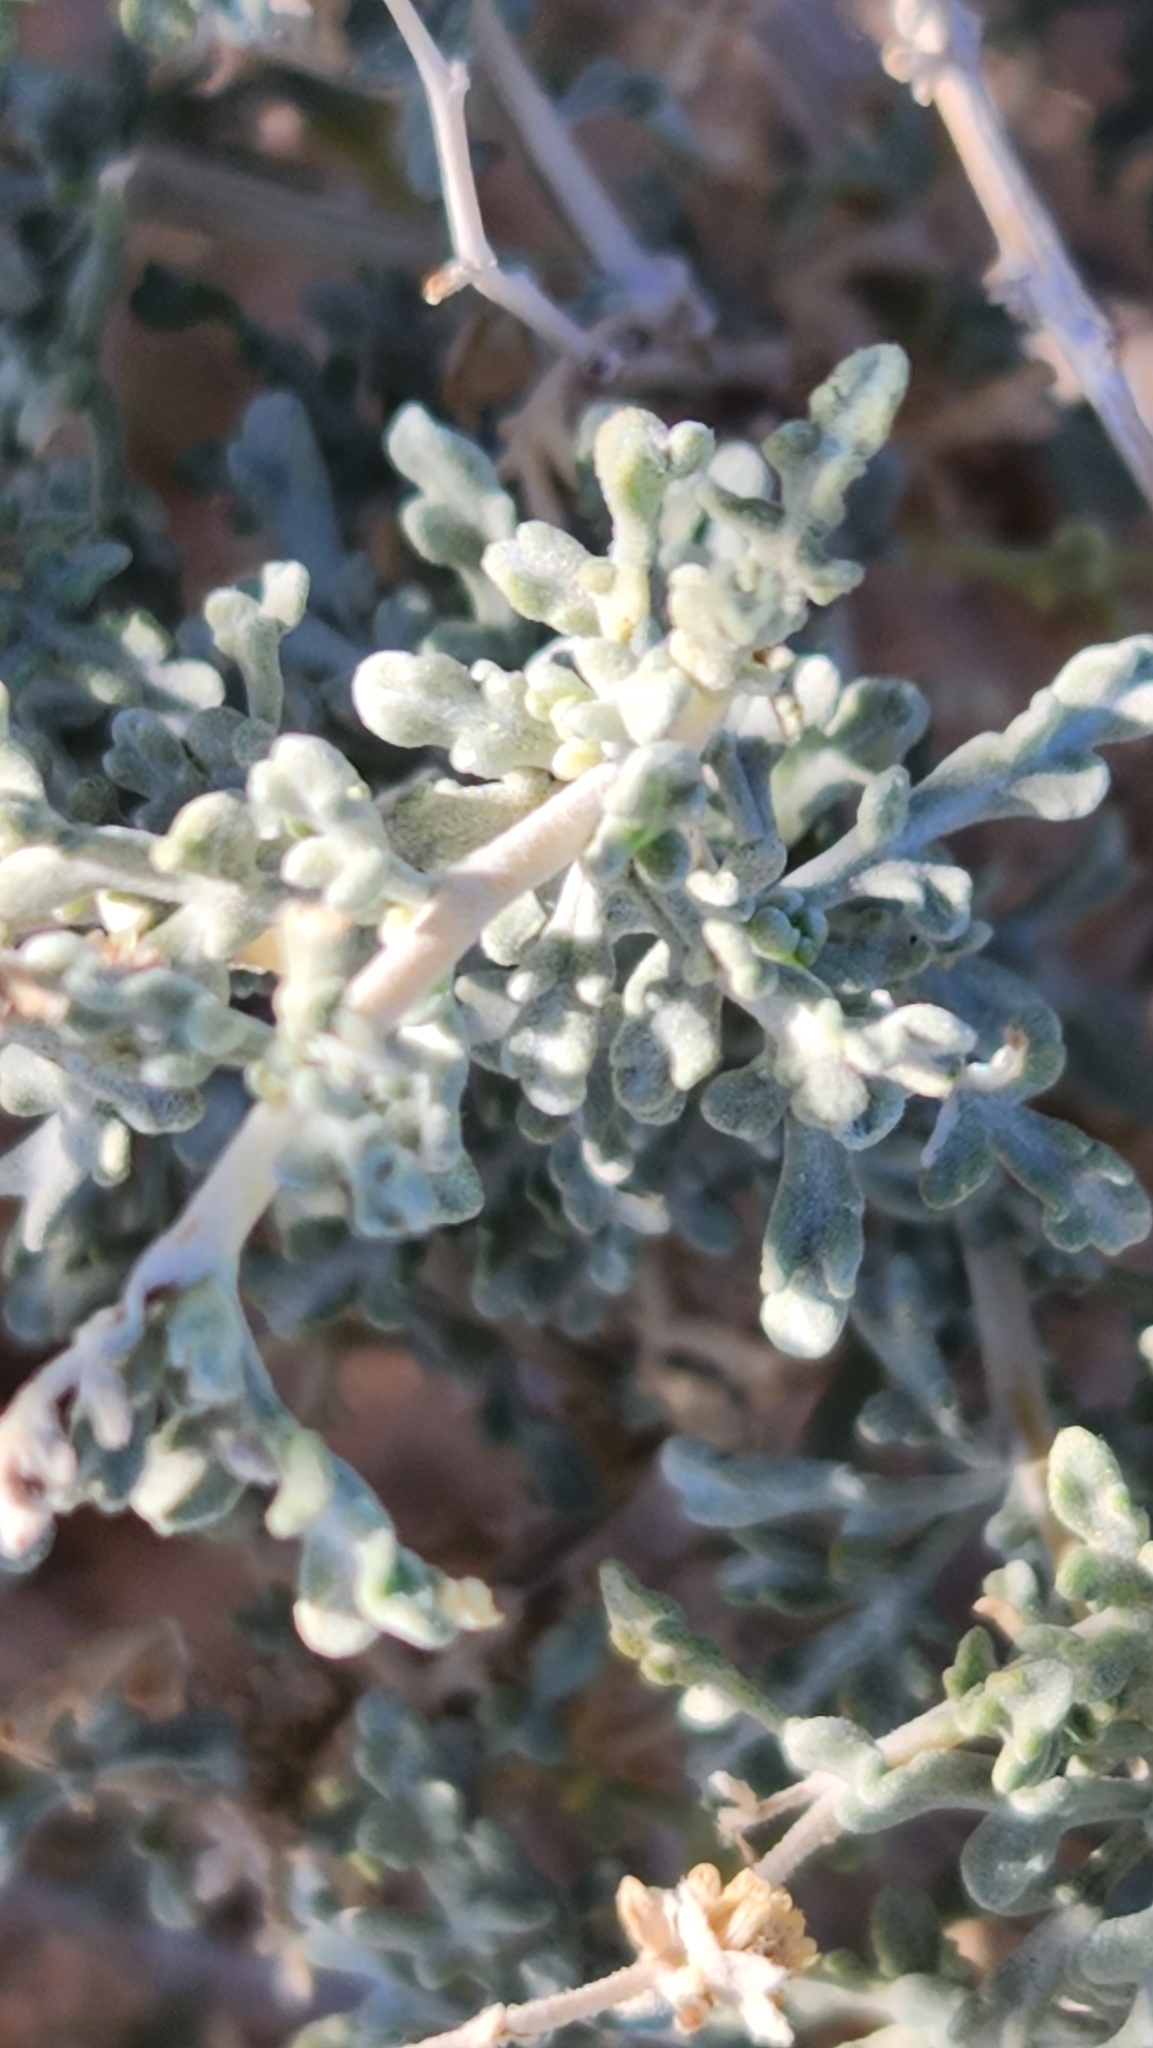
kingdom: Plantae
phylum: Tracheophyta
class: Magnoliopsida
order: Asterales
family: Asteraceae
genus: Ambrosia
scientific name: Ambrosia dumosa
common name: Bur-sage
